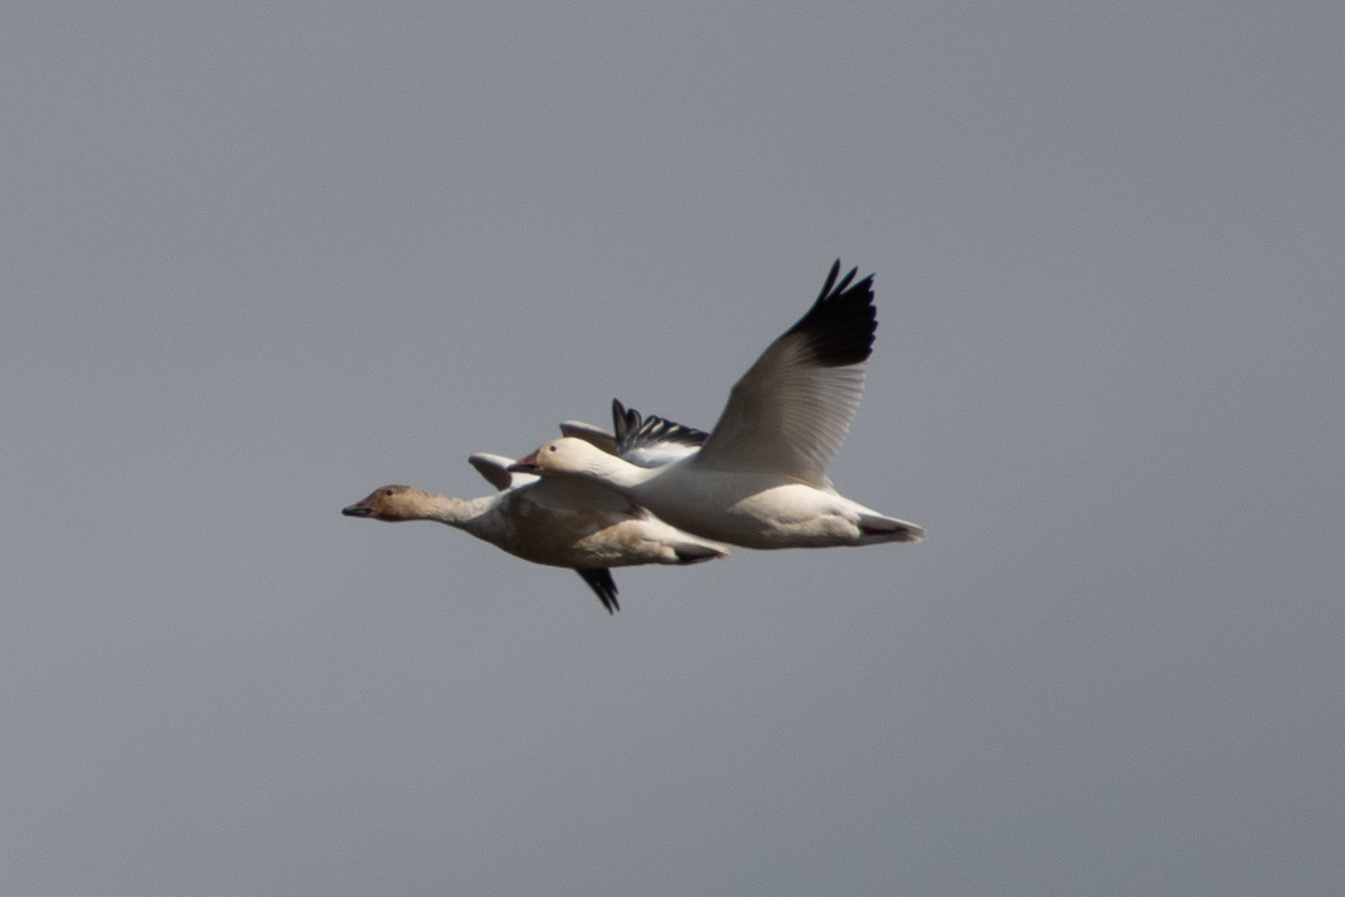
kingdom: Animalia
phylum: Chordata
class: Aves
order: Anseriformes
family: Anatidae
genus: Anser
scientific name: Anser caerulescens
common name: Snow goose
